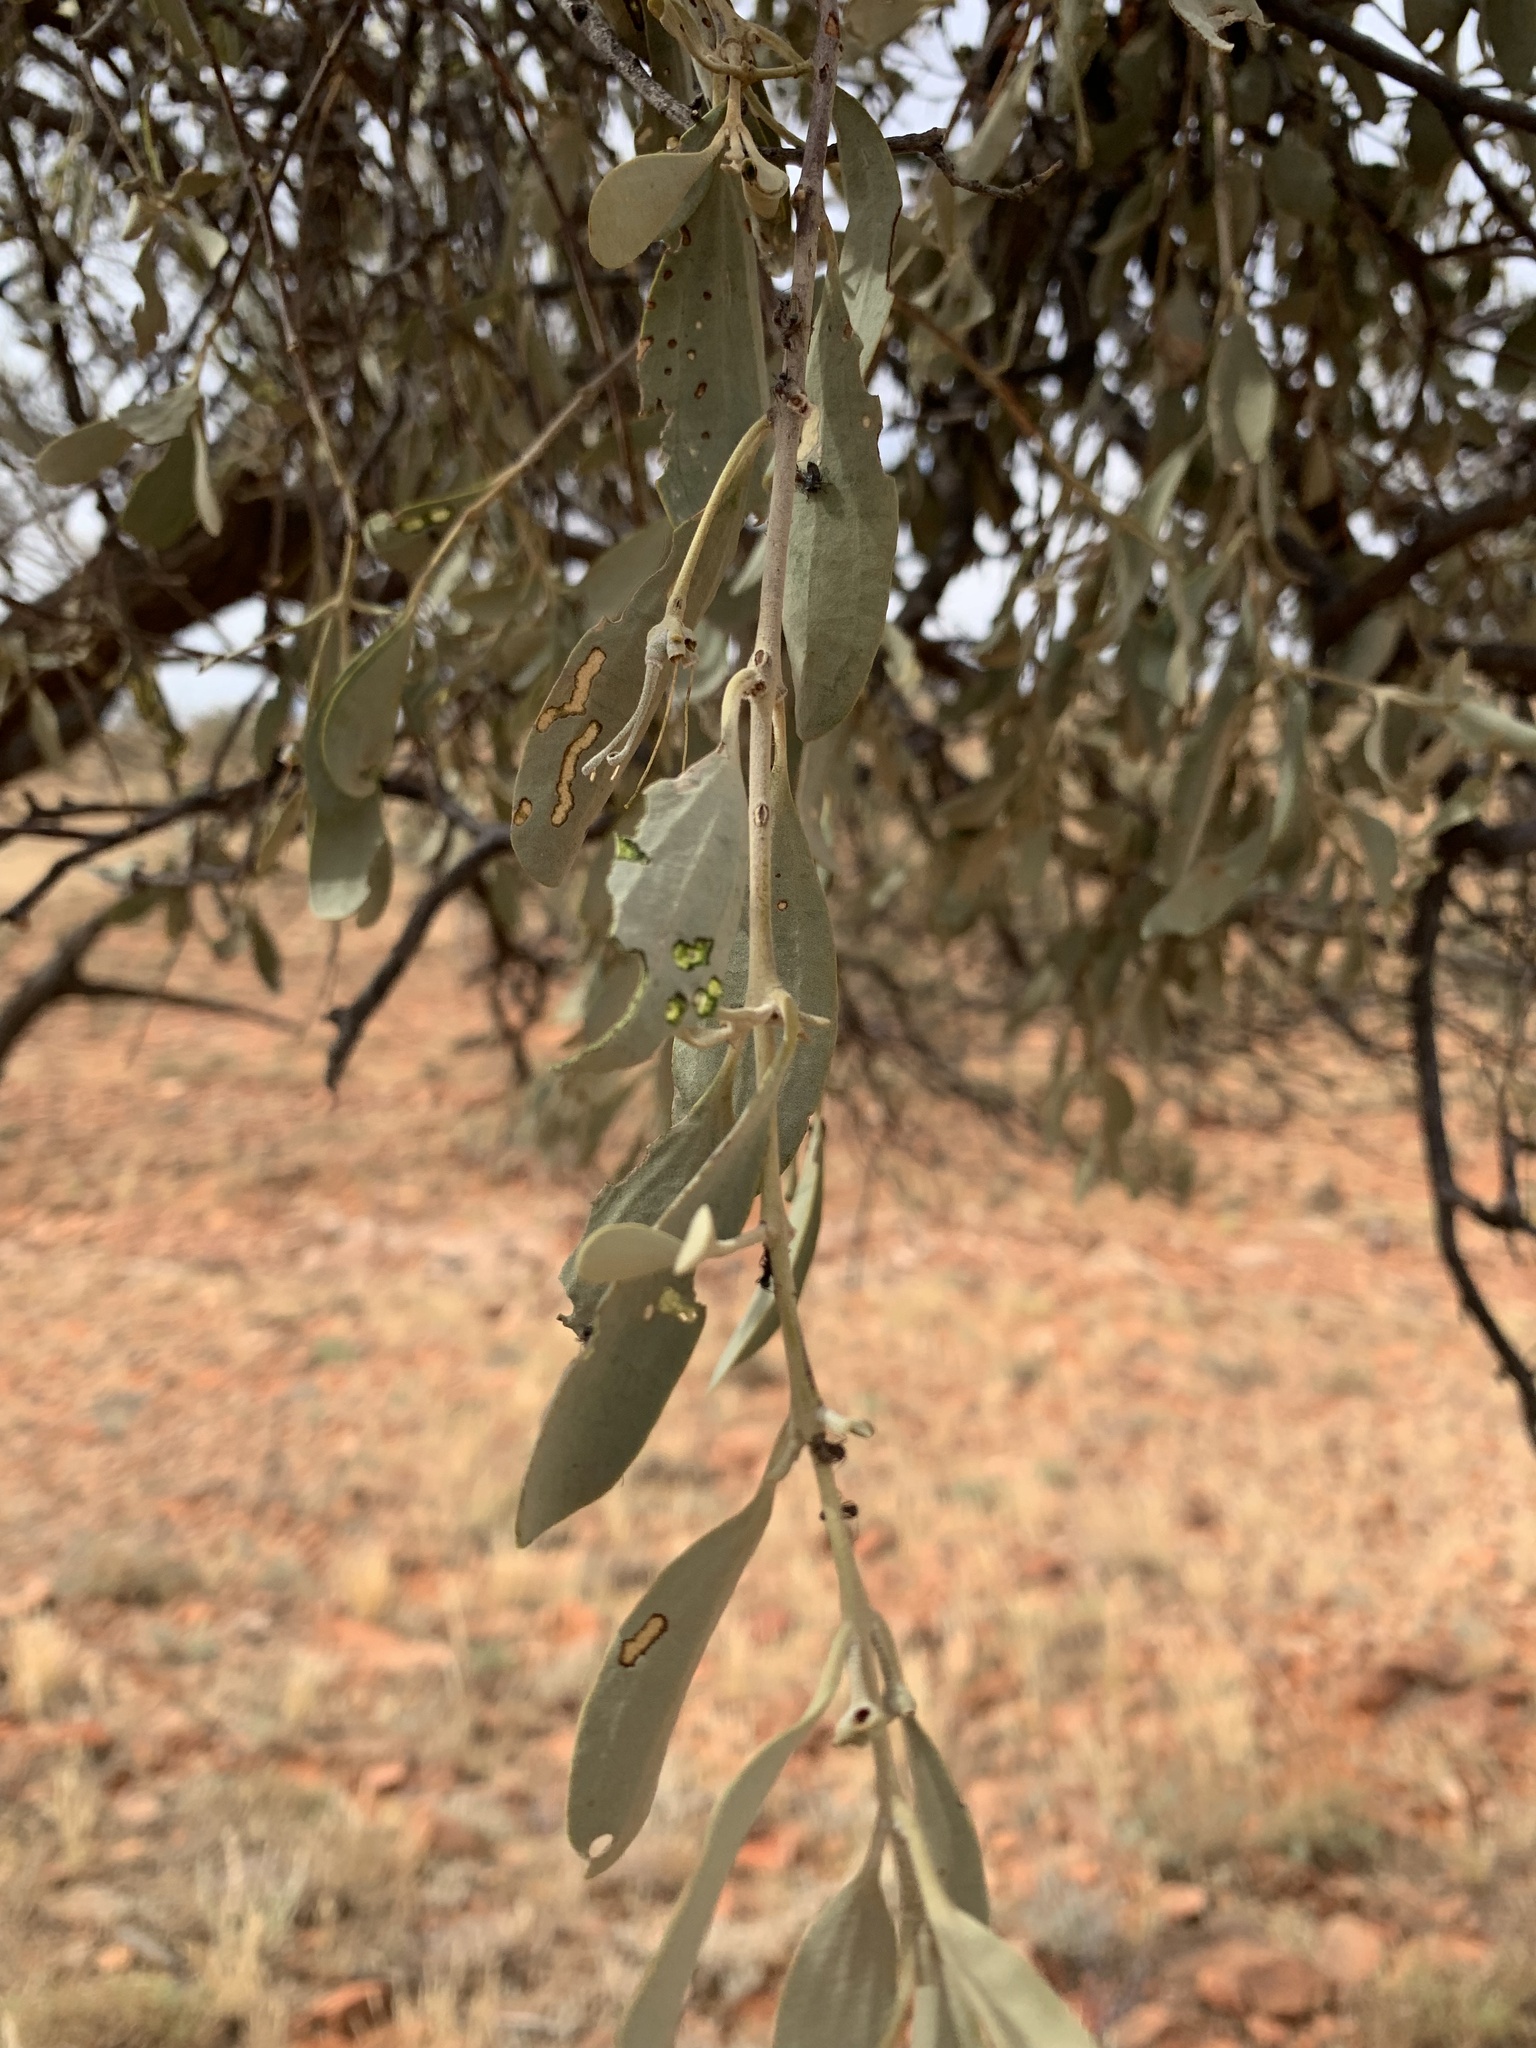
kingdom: Plantae
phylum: Tracheophyta
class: Magnoliopsida
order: Santalales
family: Loranthaceae
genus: Amyema
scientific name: Amyema maidenii
